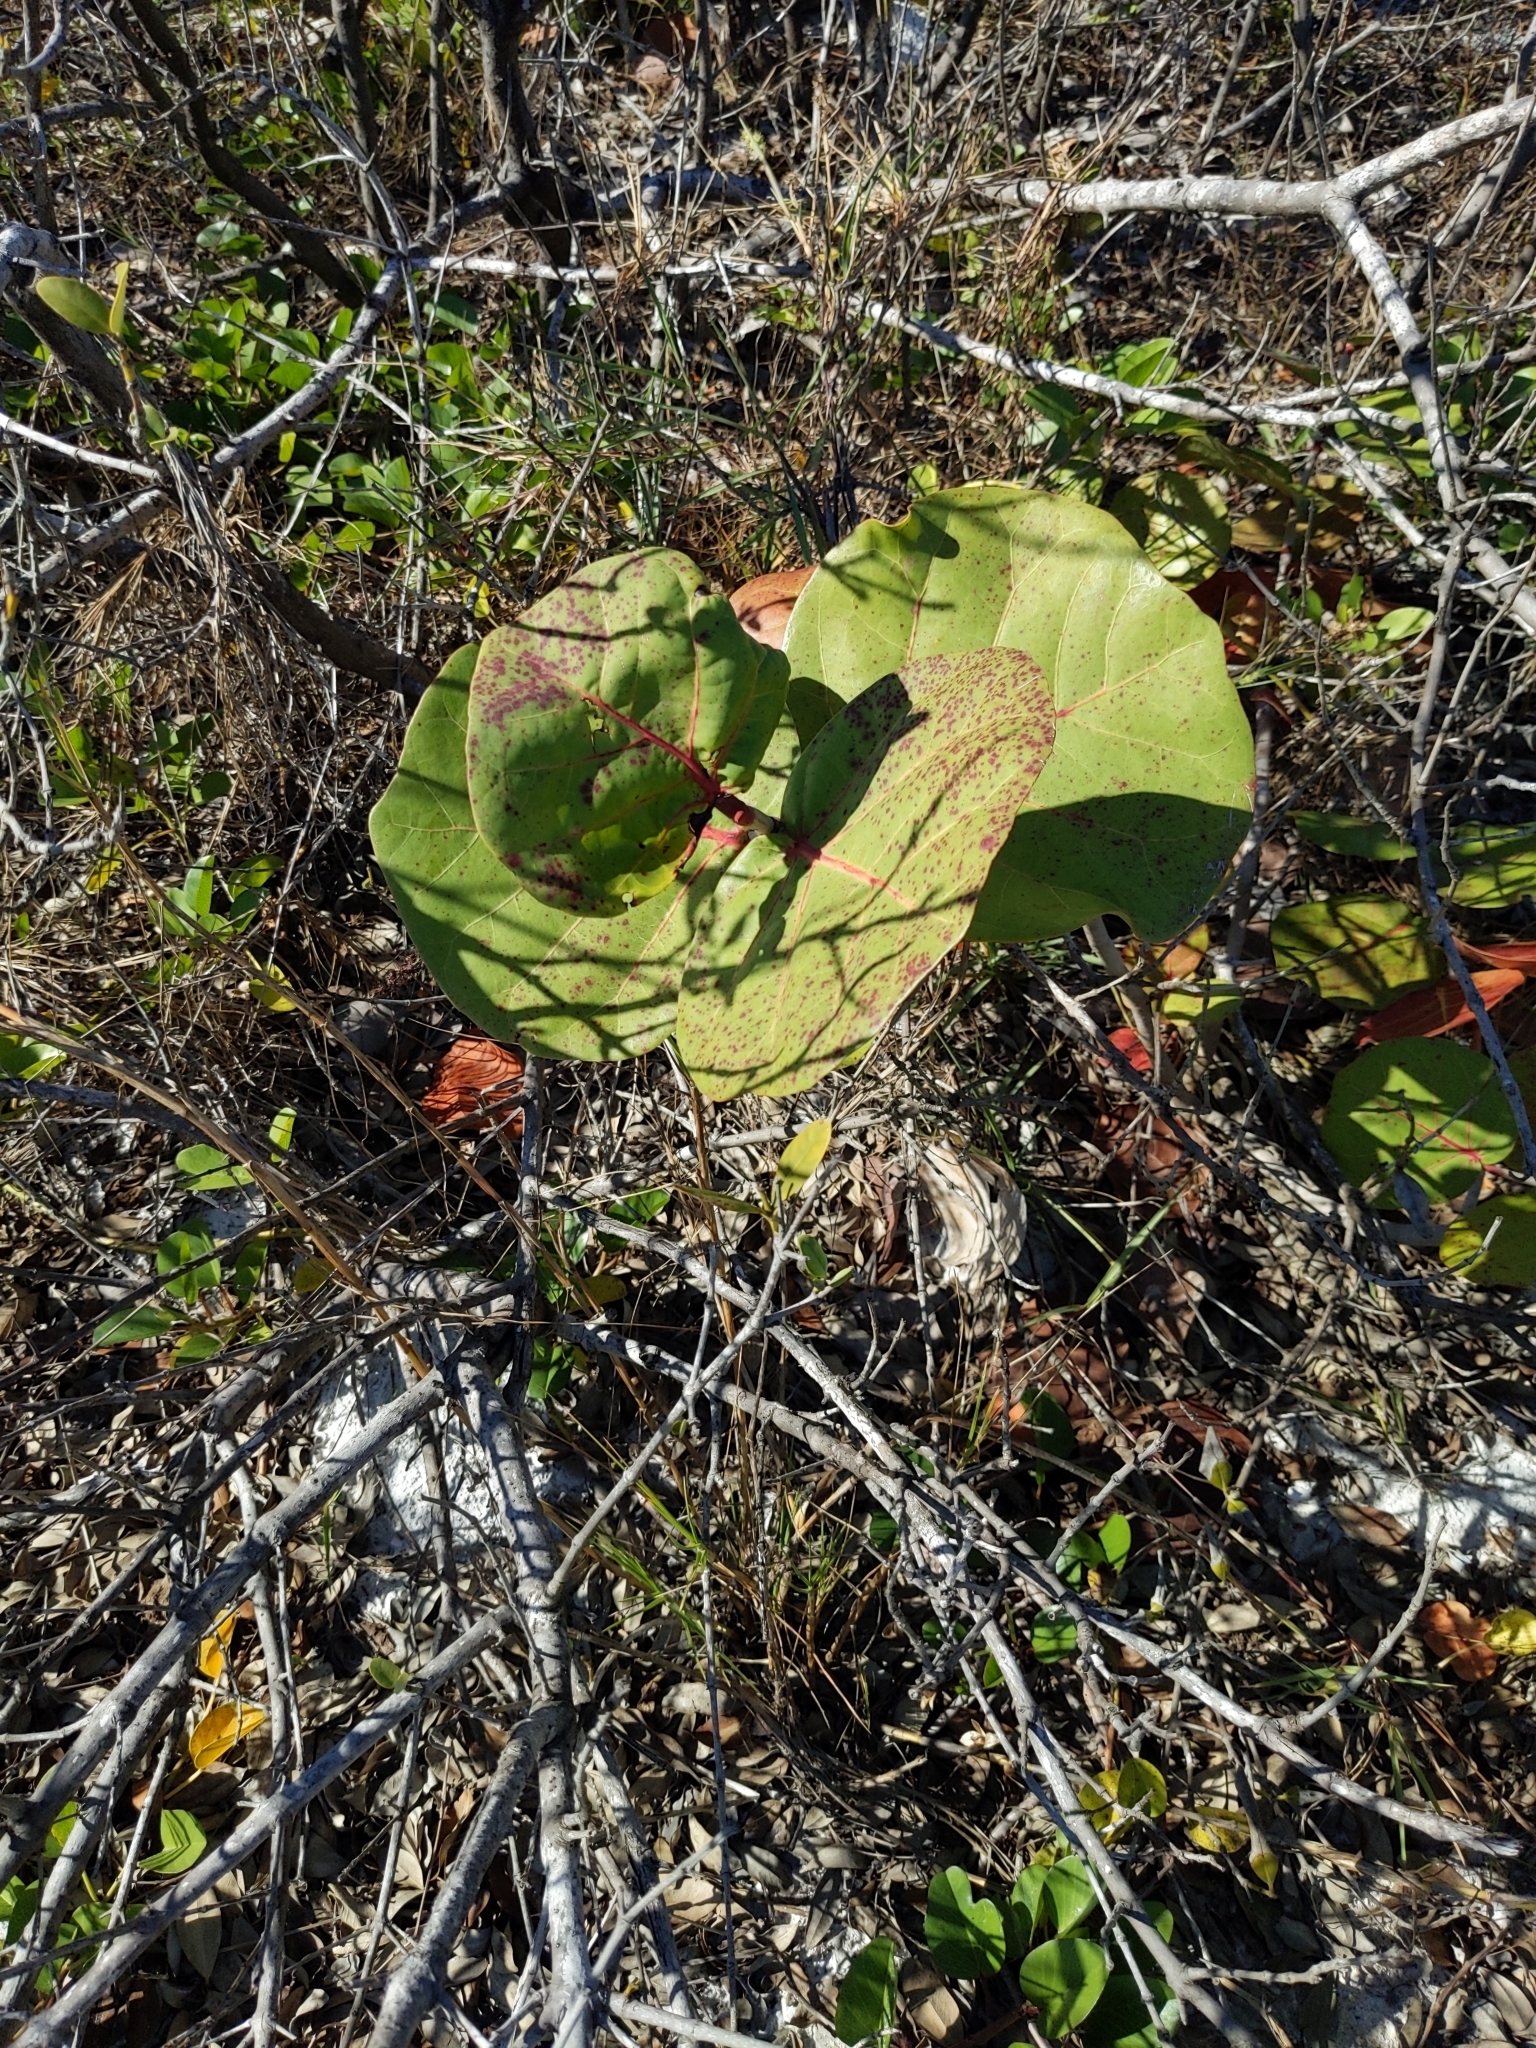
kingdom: Plantae
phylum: Tracheophyta
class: Magnoliopsida
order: Caryophyllales
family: Polygonaceae
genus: Coccoloba
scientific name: Coccoloba uvifera
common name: Seagrape
